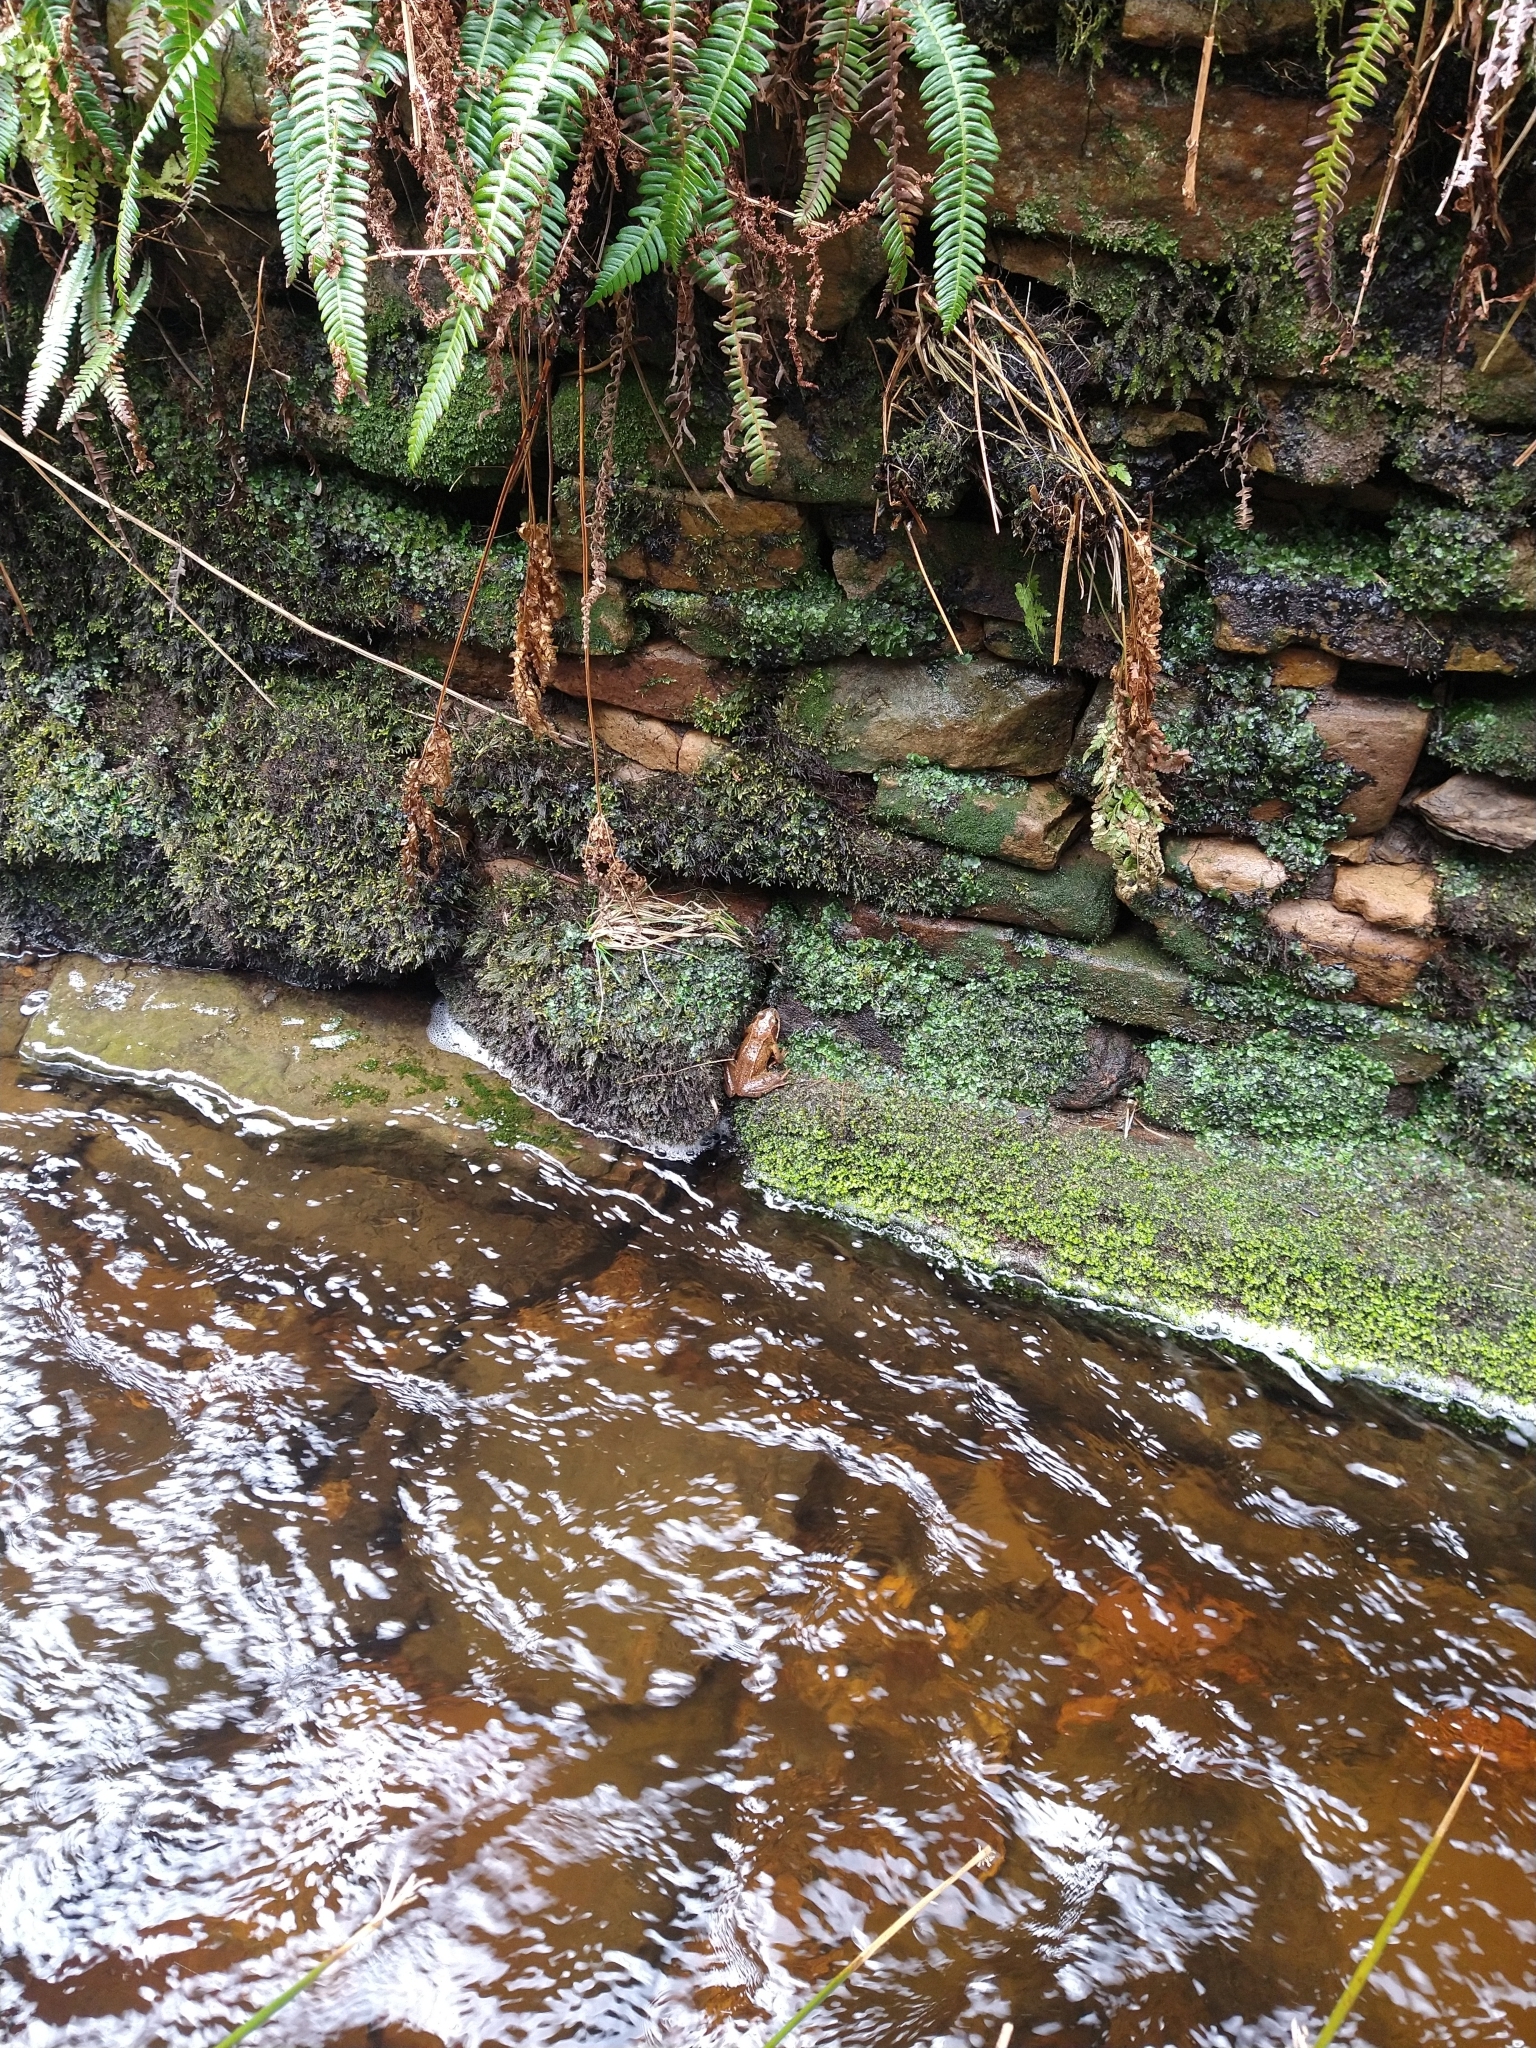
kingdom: Animalia
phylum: Chordata
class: Amphibia
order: Anura
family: Ranidae
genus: Rana
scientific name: Rana temporaria
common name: Common frog
